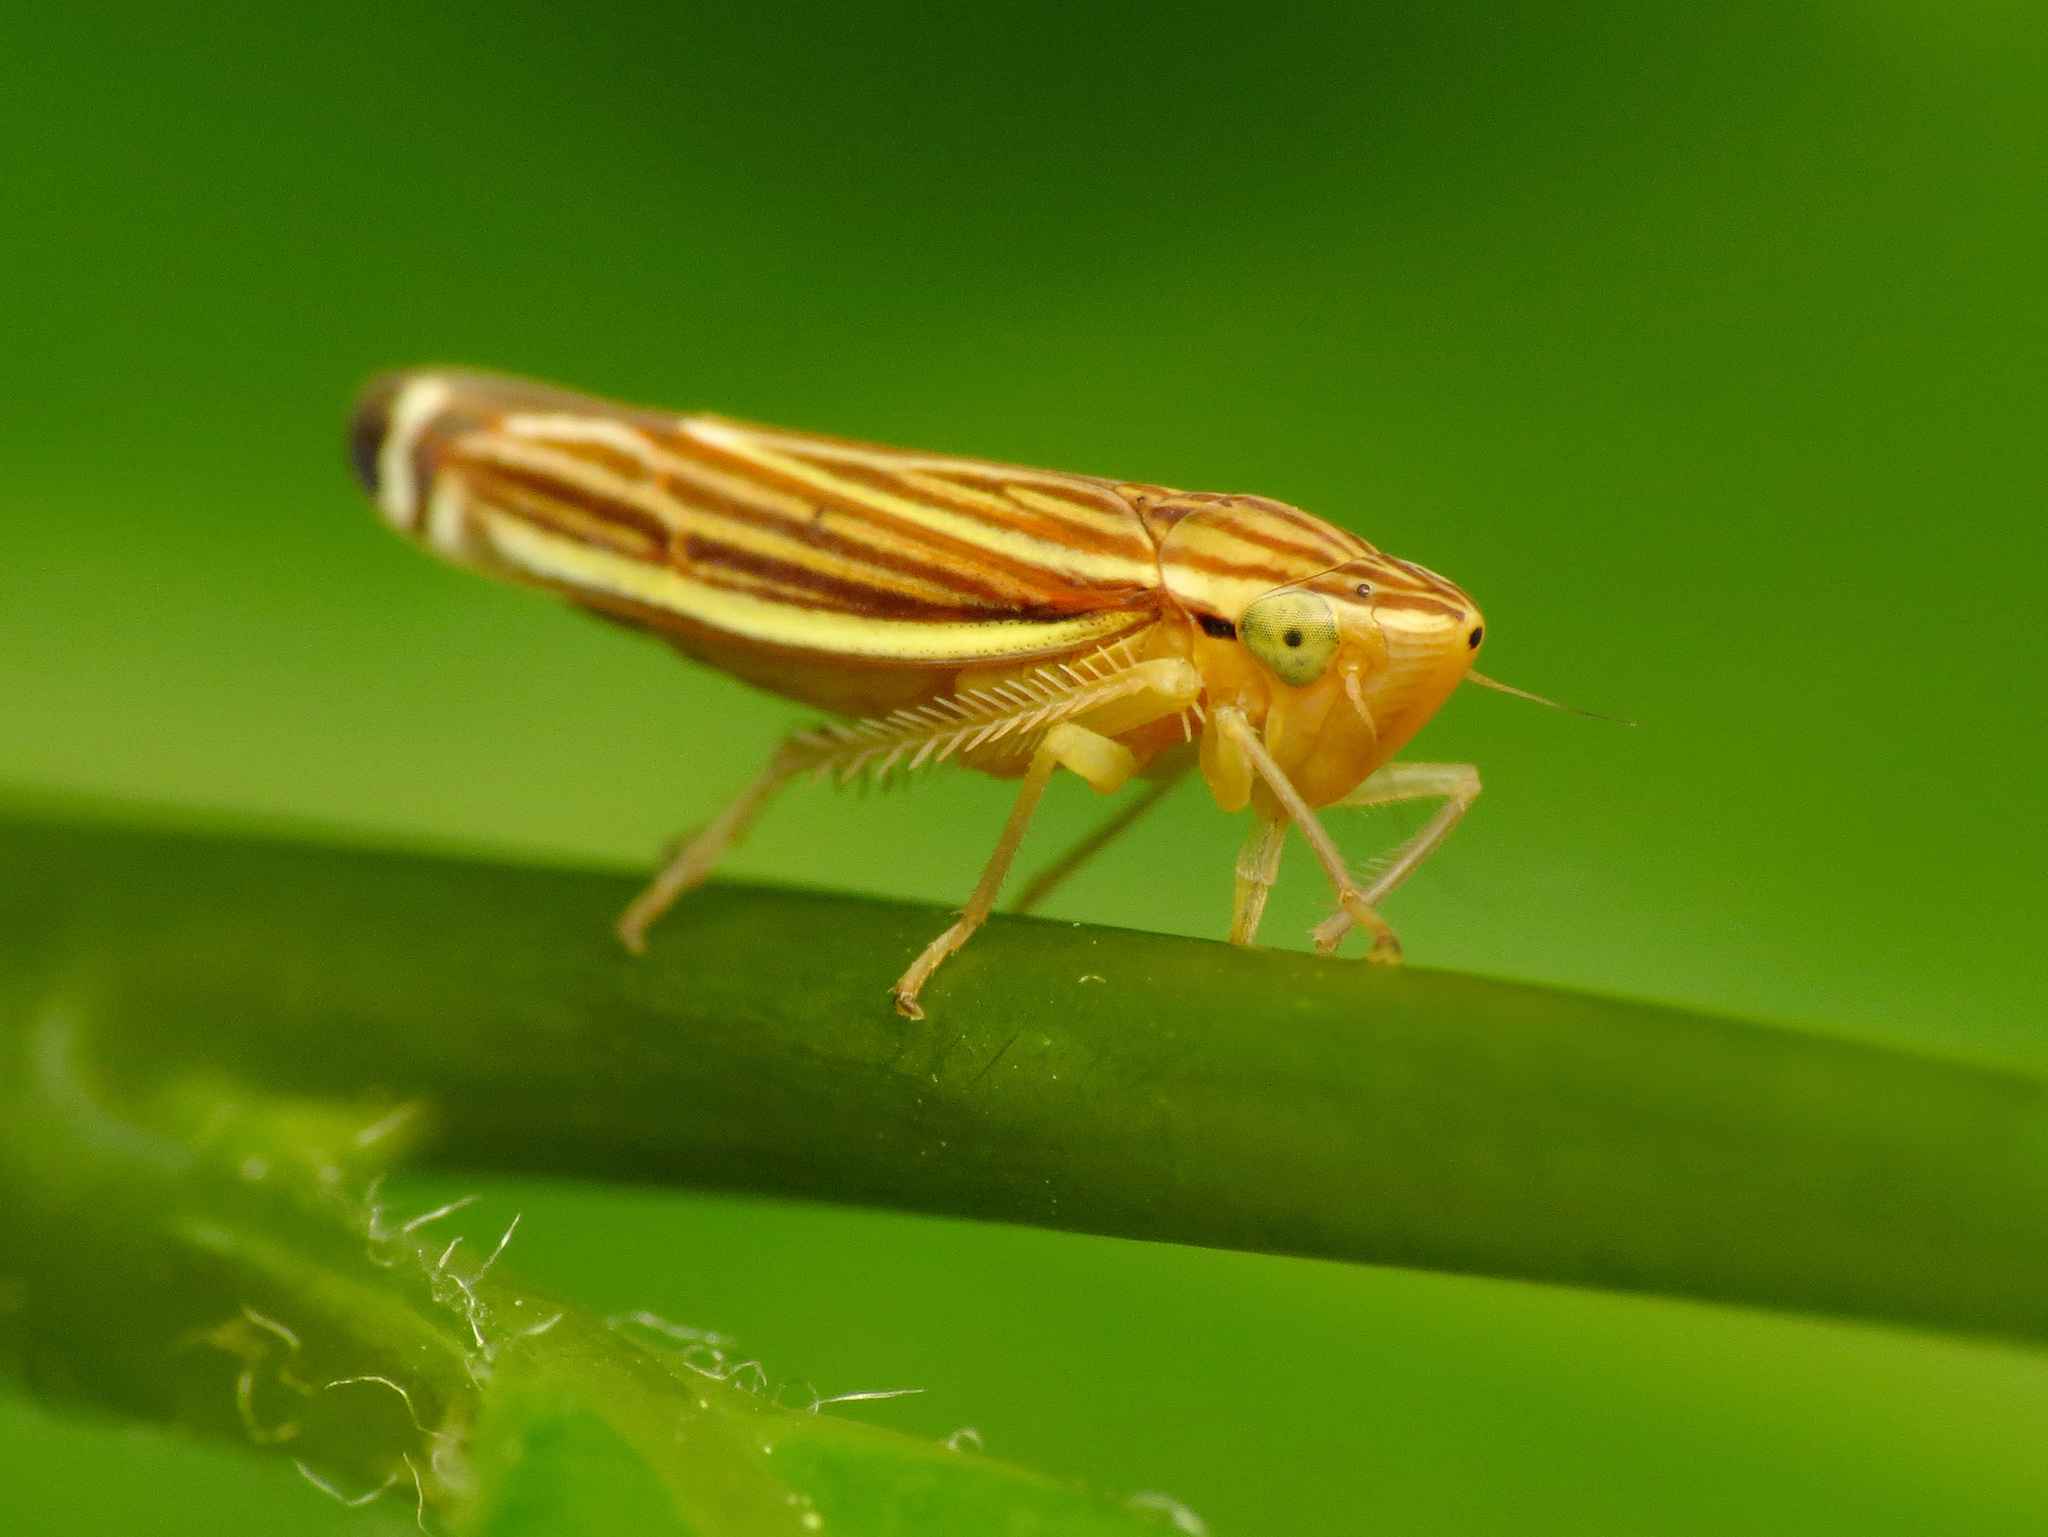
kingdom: Animalia
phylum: Arthropoda
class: Insecta
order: Hemiptera
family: Cicadellidae
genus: Sibovia
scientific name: Sibovia occatoria
